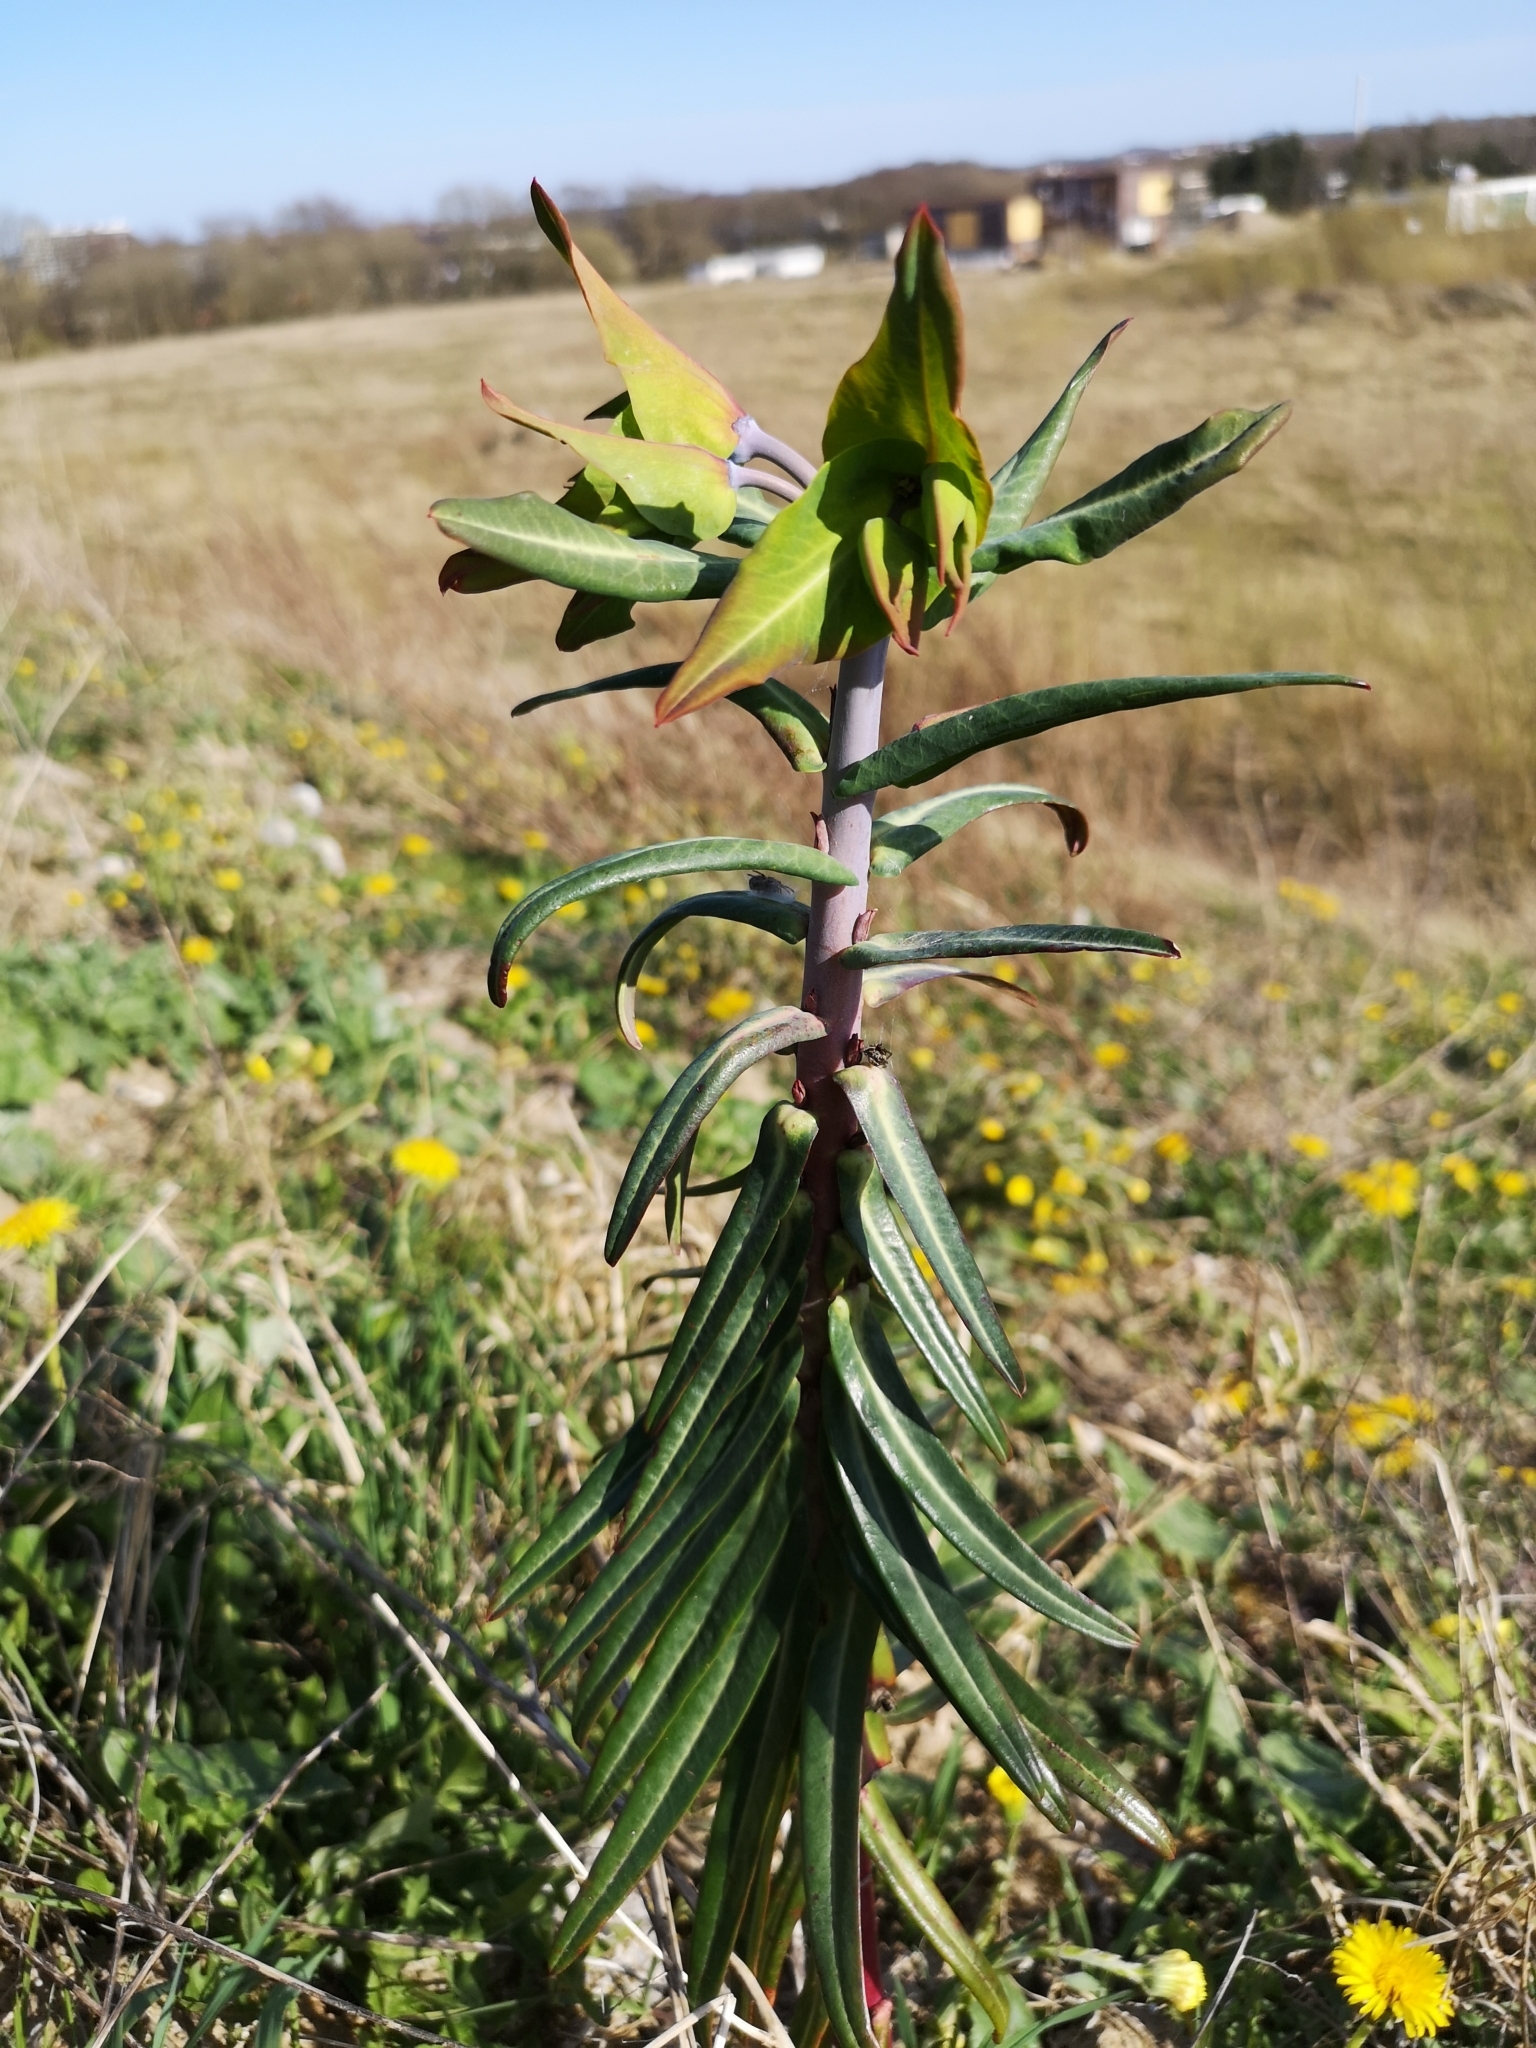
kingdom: Plantae
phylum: Tracheophyta
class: Magnoliopsida
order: Malpighiales
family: Euphorbiaceae
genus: Euphorbia
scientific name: Euphorbia lathyris
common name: Caper spurge
